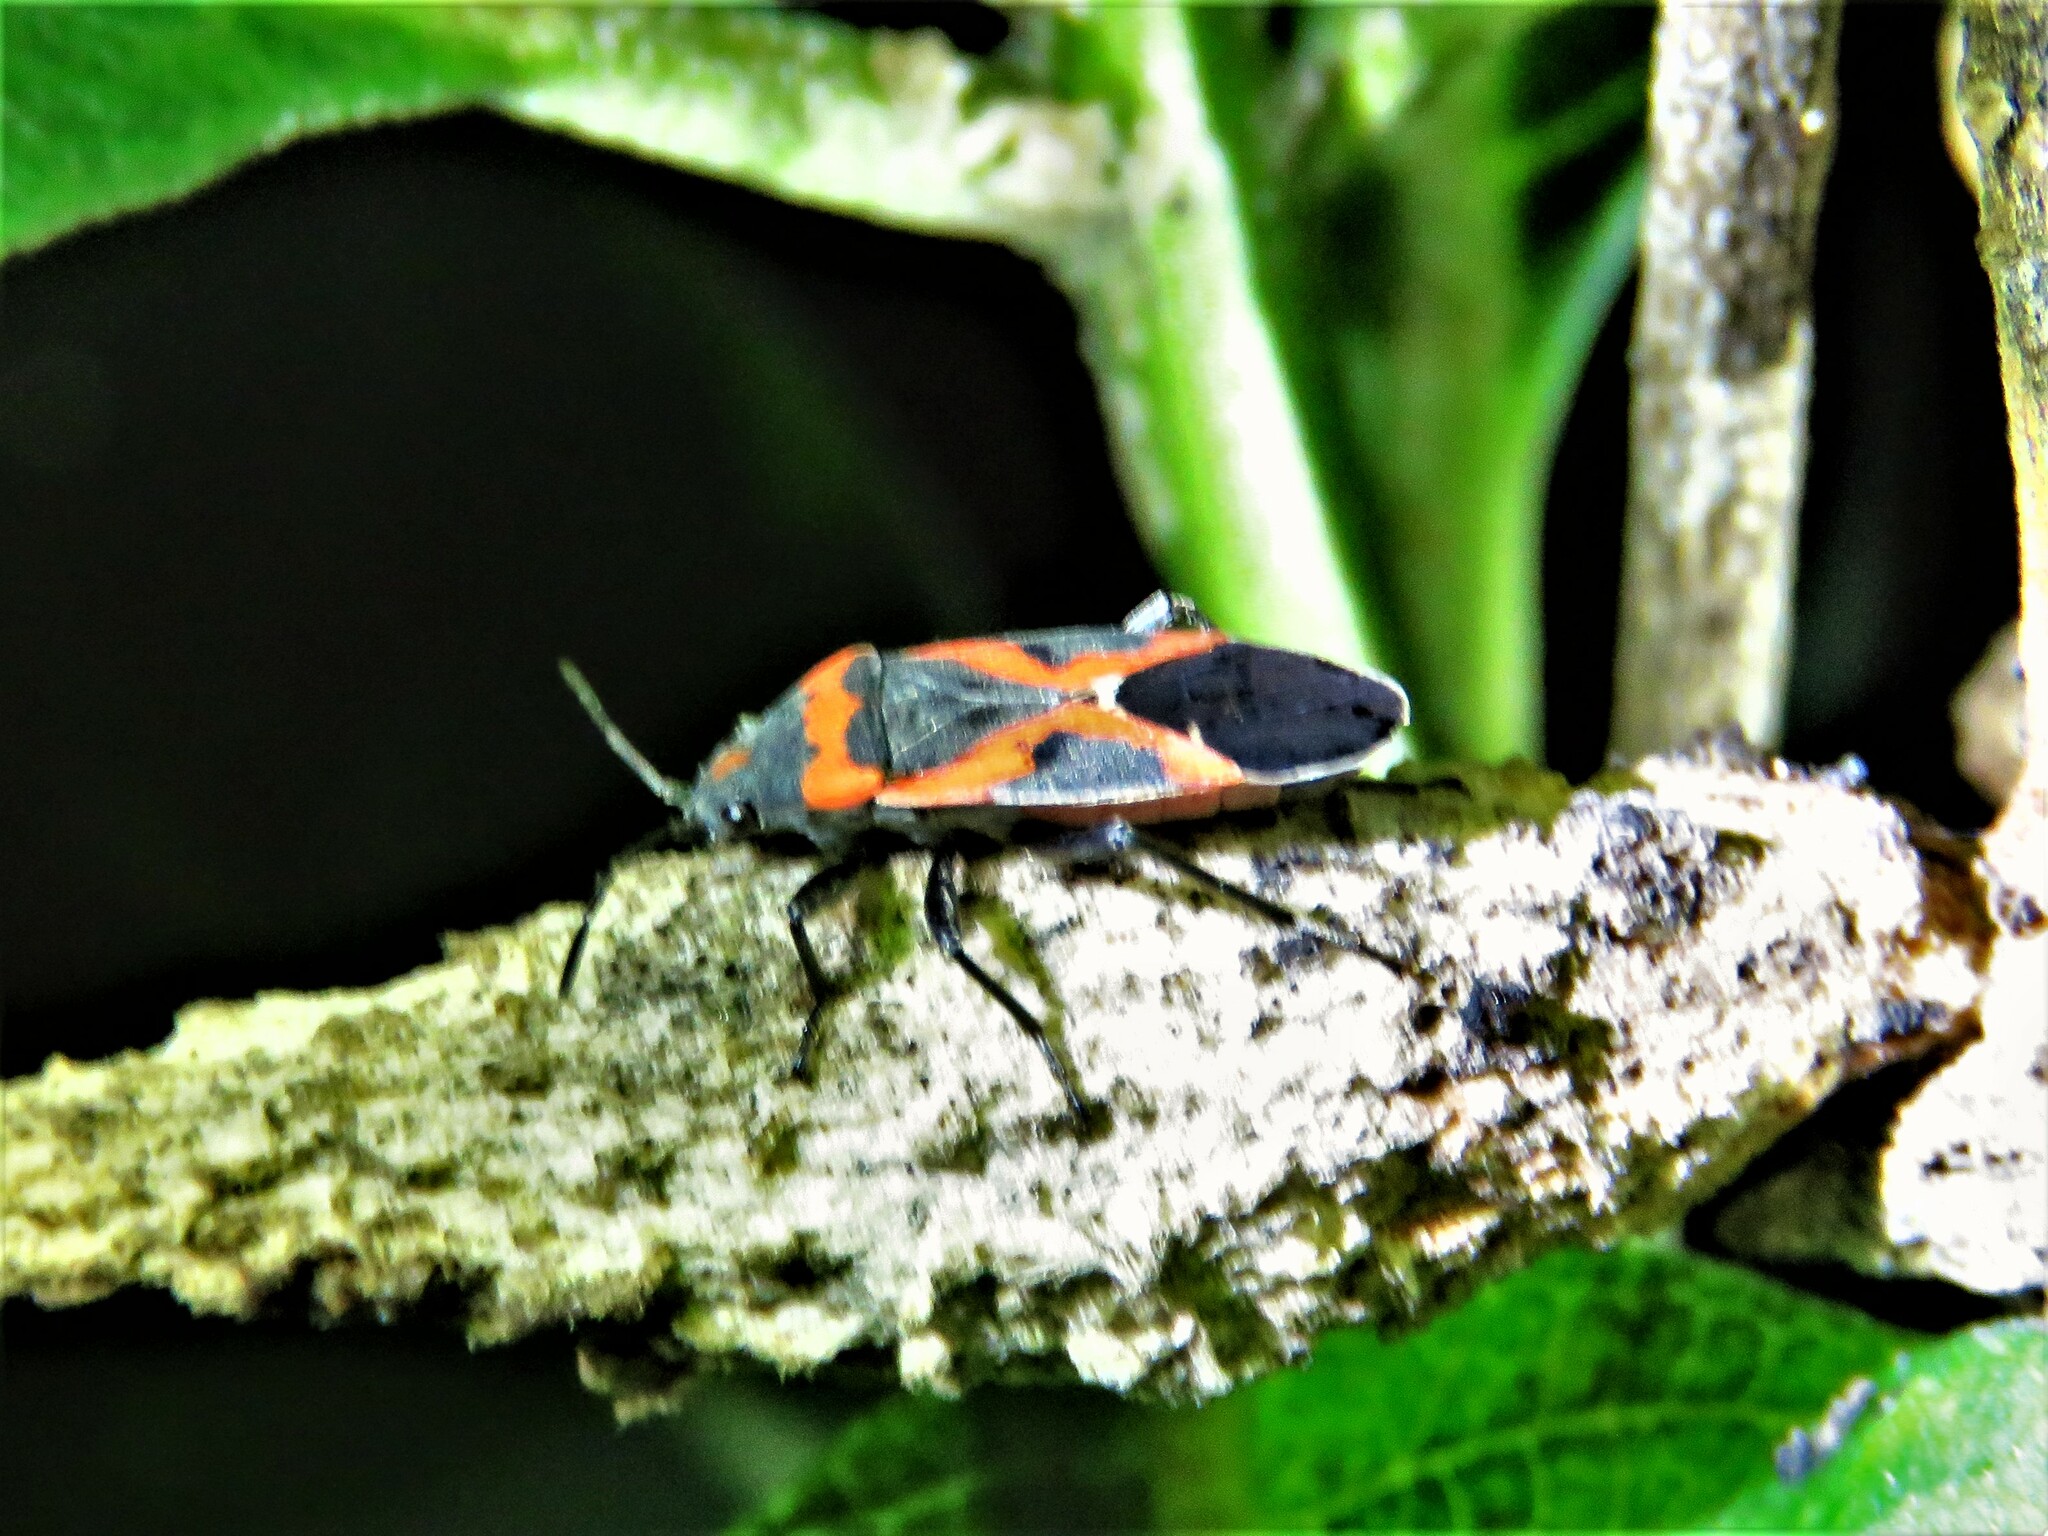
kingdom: Animalia
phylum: Arthropoda
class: Insecta
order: Hemiptera
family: Lygaeidae
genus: Lygaeus
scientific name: Lygaeus kalmii
